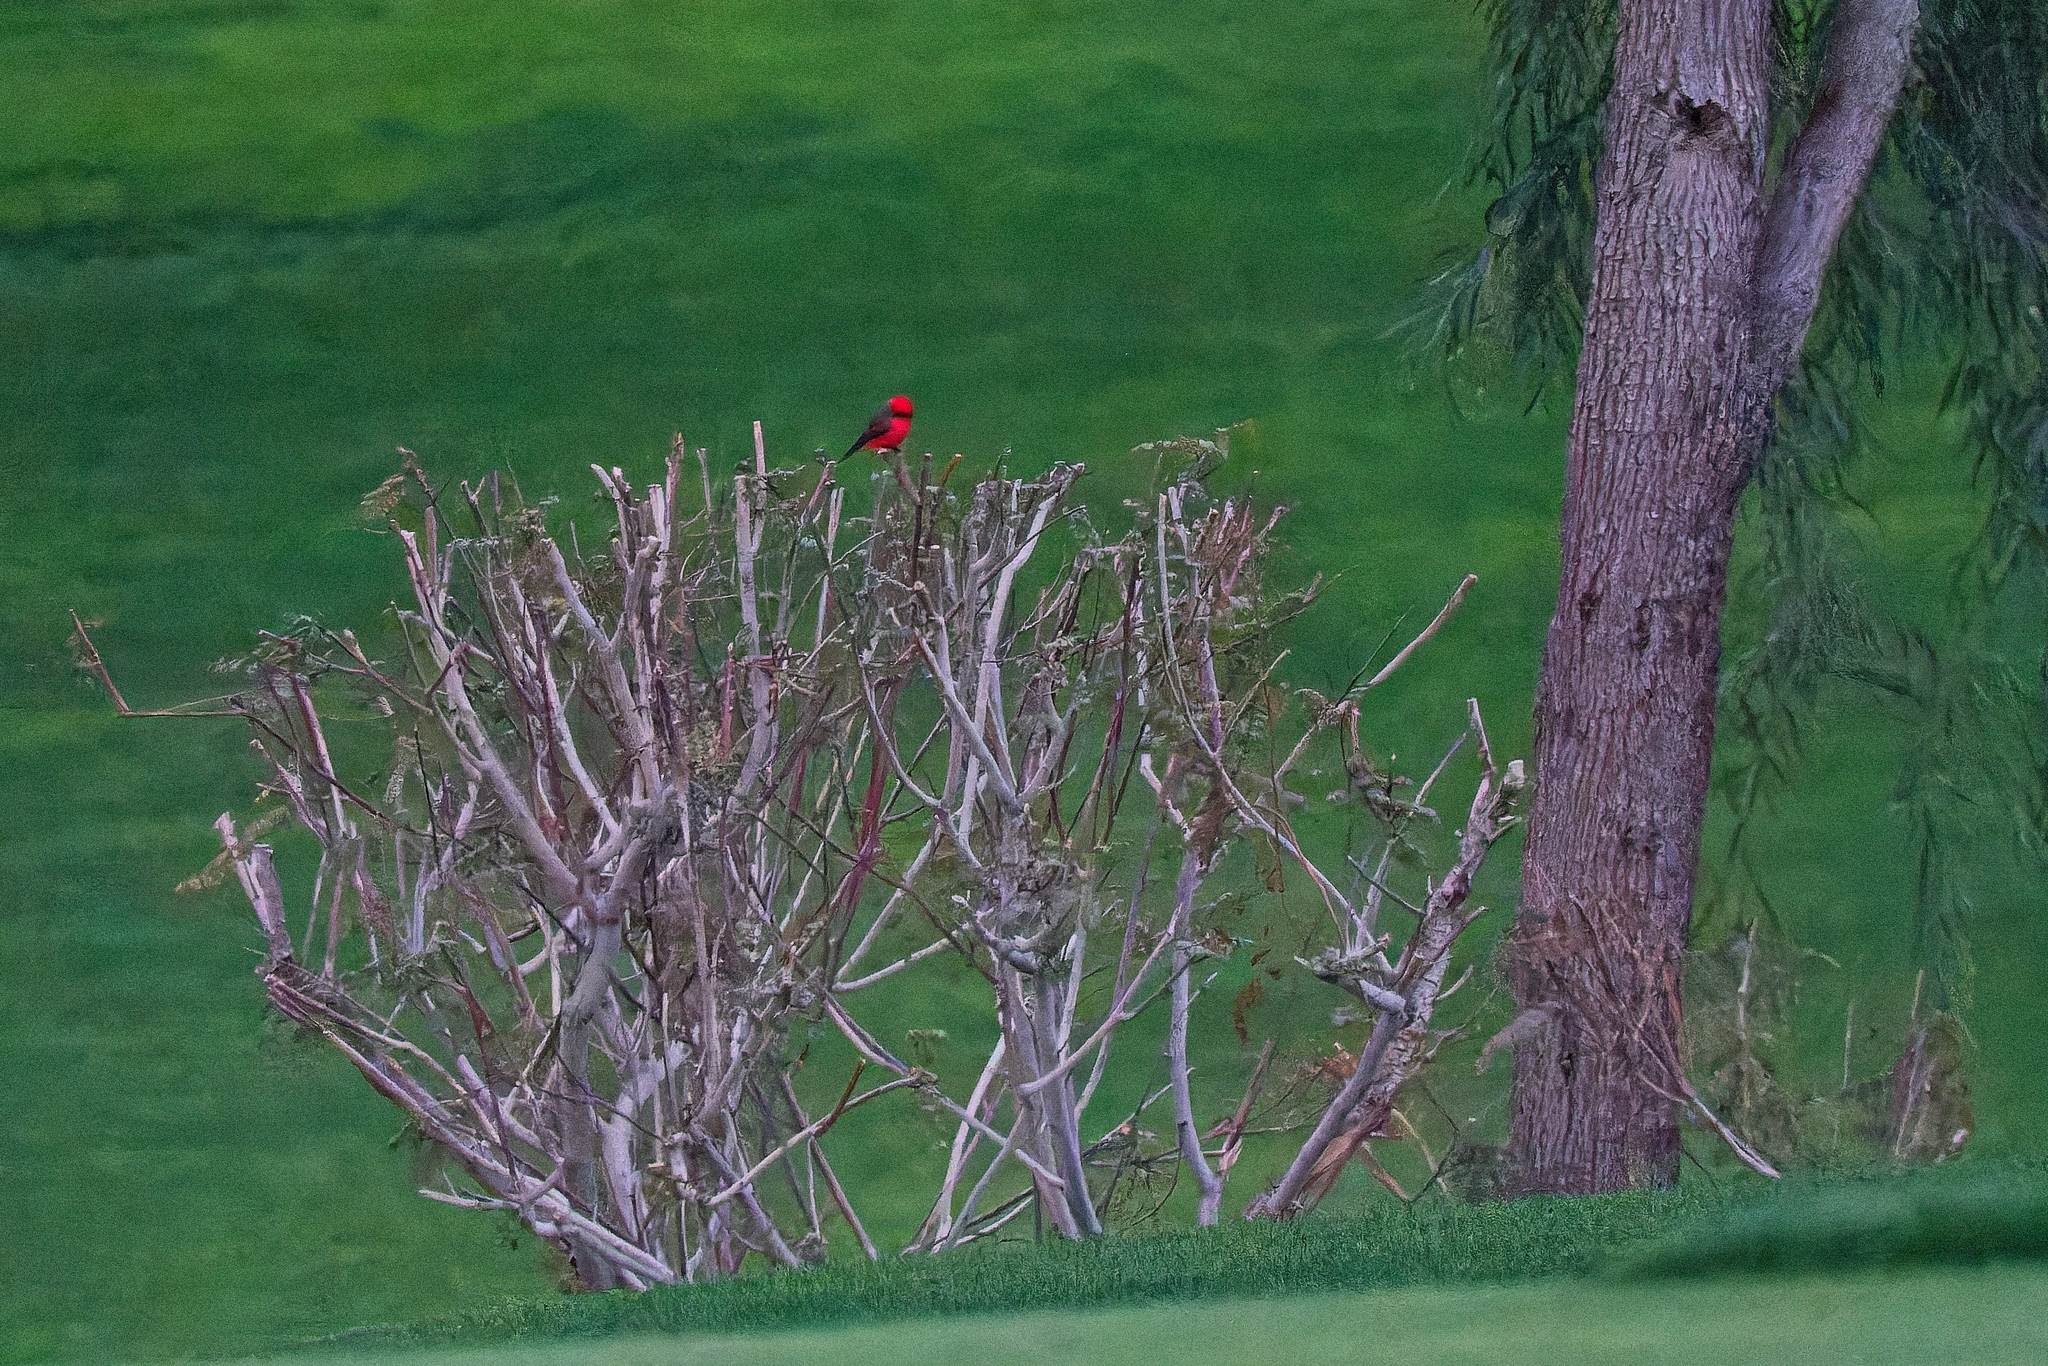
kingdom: Animalia
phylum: Chordata
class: Aves
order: Passeriformes
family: Tyrannidae
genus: Pyrocephalus
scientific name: Pyrocephalus rubinus
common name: Vermilion flycatcher
